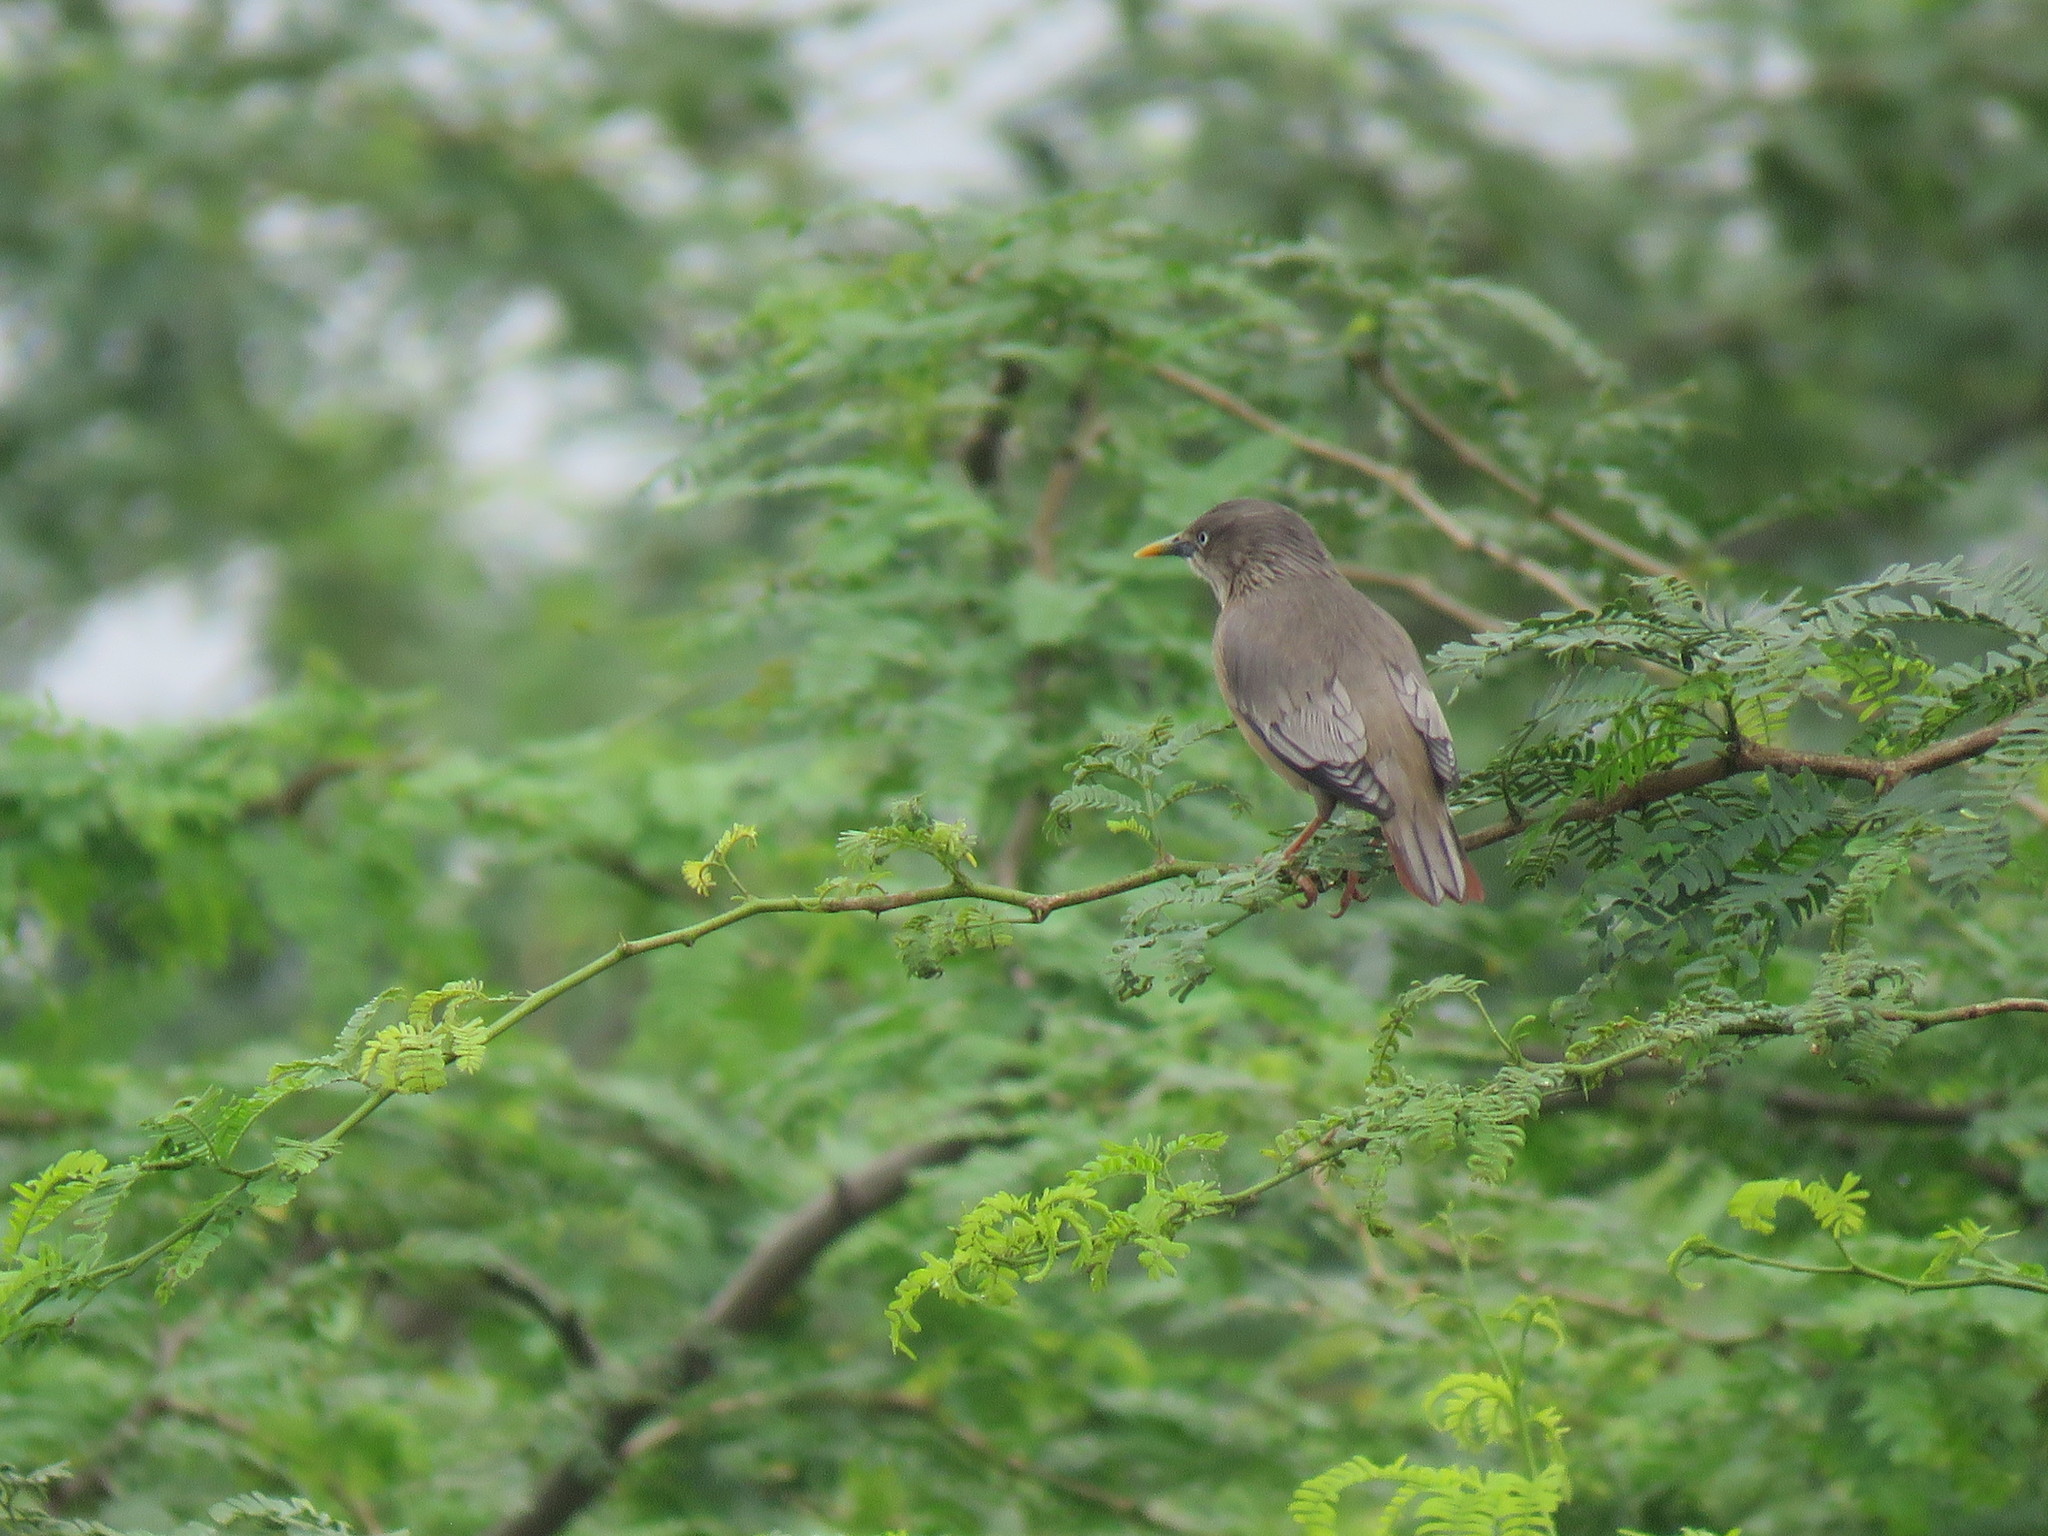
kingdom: Animalia
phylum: Chordata
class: Aves
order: Passeriformes
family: Sturnidae
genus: Sturnia
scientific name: Sturnia malabarica
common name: Chestnut-tailed starling
